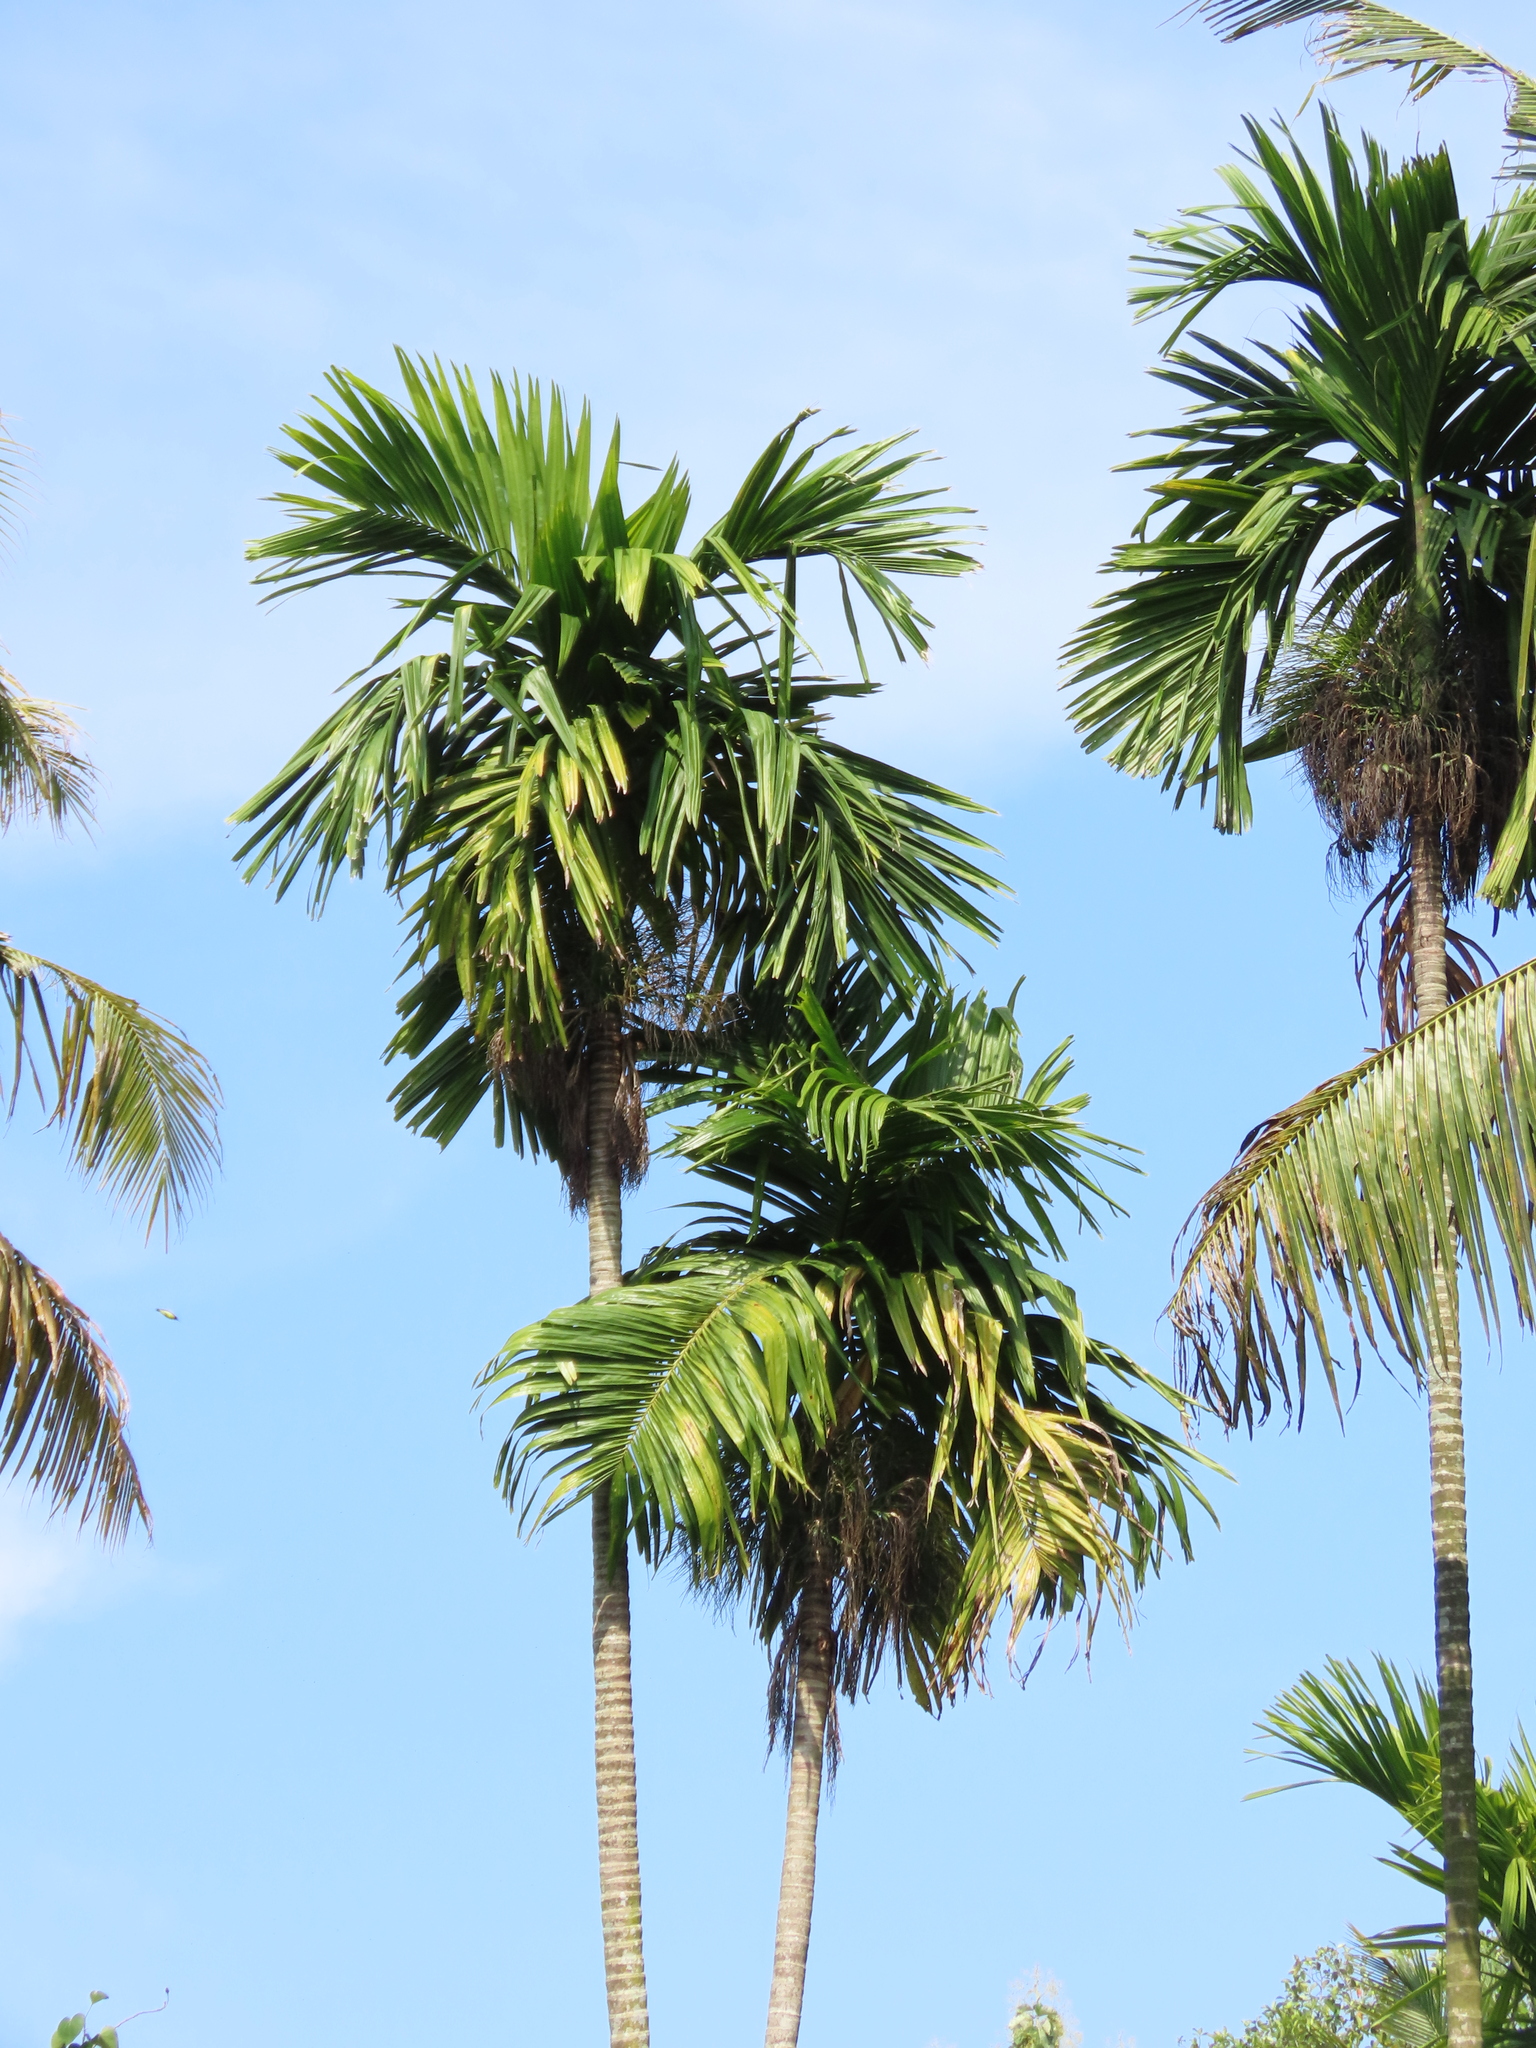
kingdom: Plantae
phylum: Tracheophyta
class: Liliopsida
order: Arecales
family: Arecaceae
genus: Areca
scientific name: Areca catechu
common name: Indian-nut
